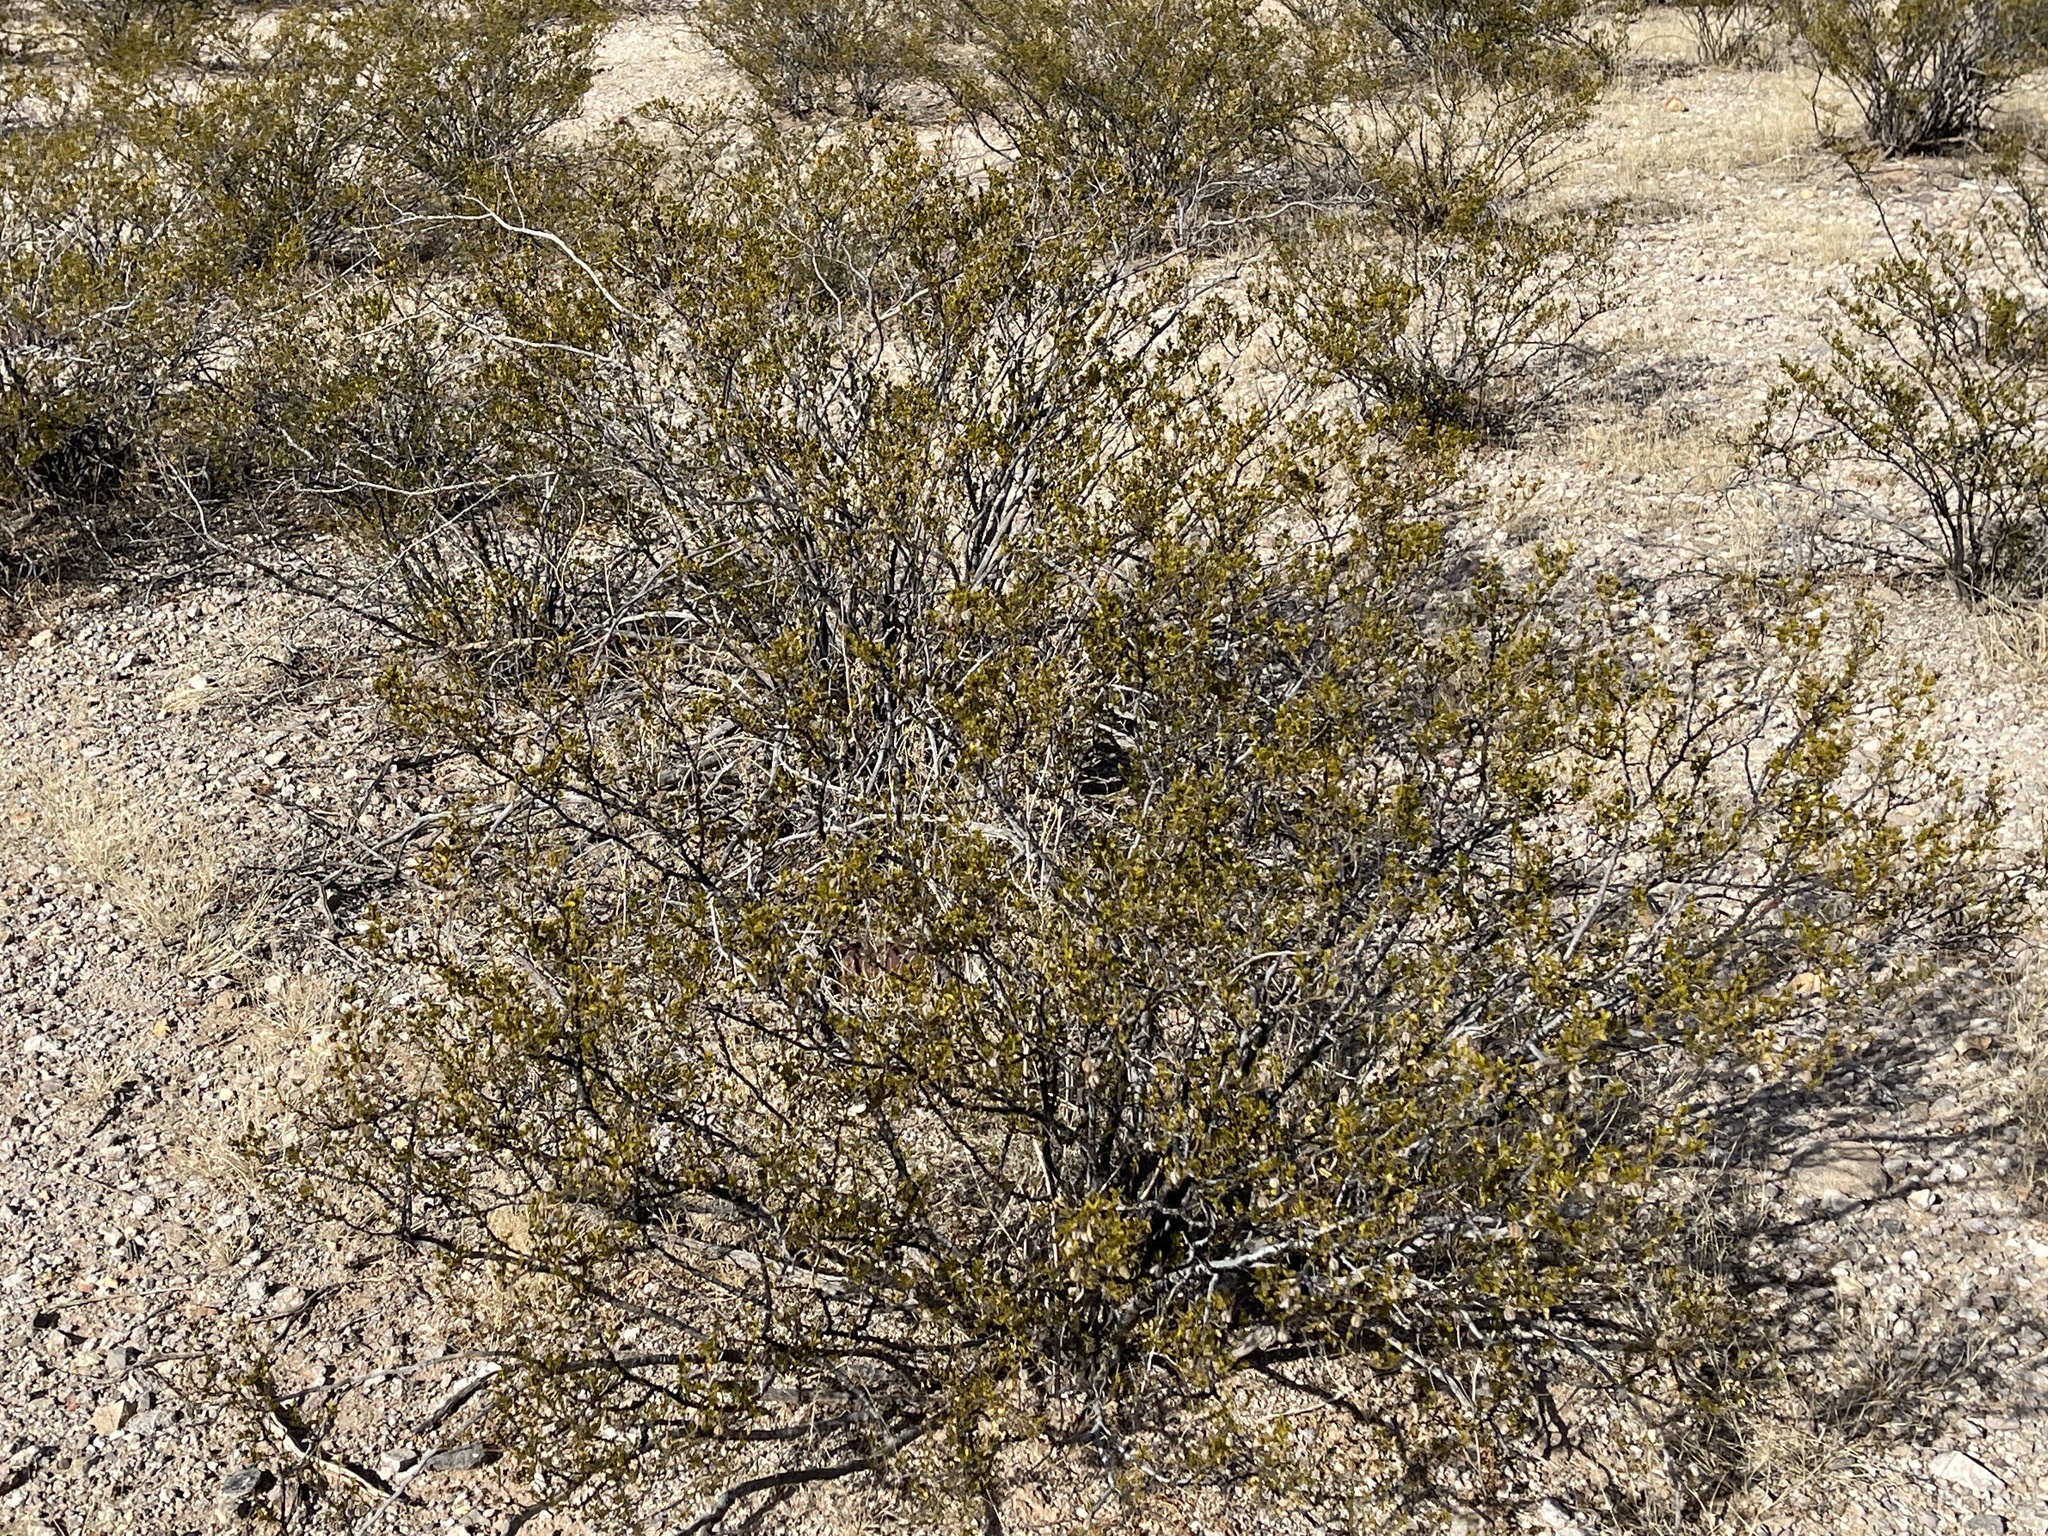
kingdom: Plantae
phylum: Tracheophyta
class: Magnoliopsida
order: Zygophyllales
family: Zygophyllaceae
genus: Larrea
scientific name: Larrea tridentata
